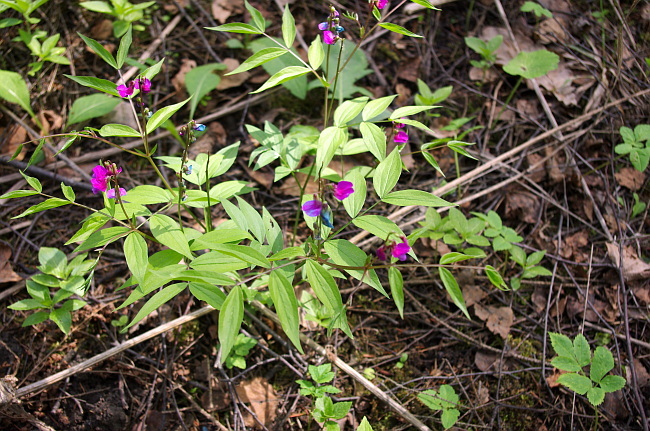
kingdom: Plantae
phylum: Tracheophyta
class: Magnoliopsida
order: Fabales
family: Fabaceae
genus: Lathyrus
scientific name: Lathyrus vernus
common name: Spring pea
